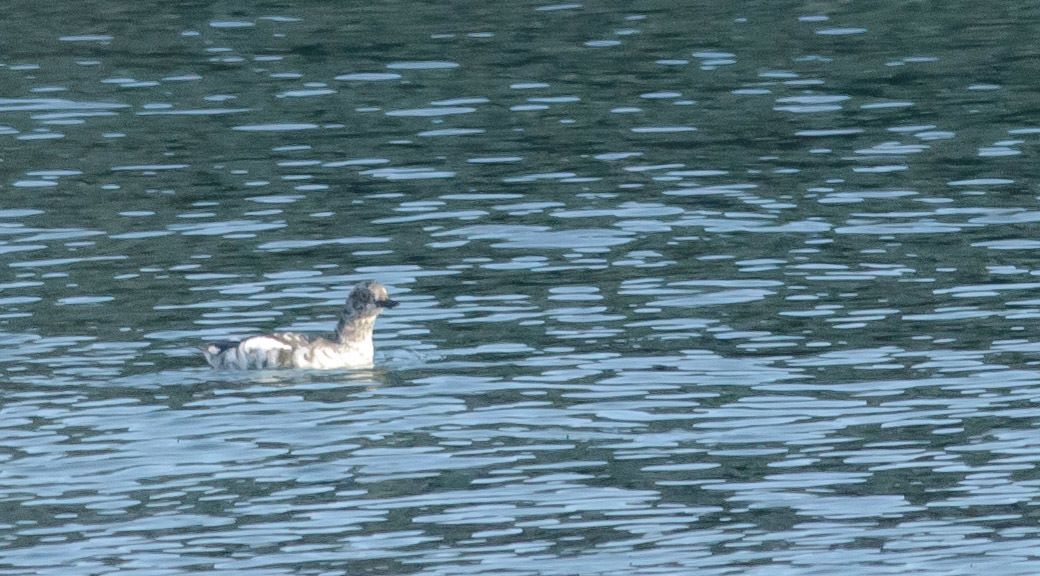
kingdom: Animalia
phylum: Chordata
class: Aves
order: Charadriiformes
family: Alcidae
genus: Cepphus
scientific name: Cepphus columba
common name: Pigeon guillemot
